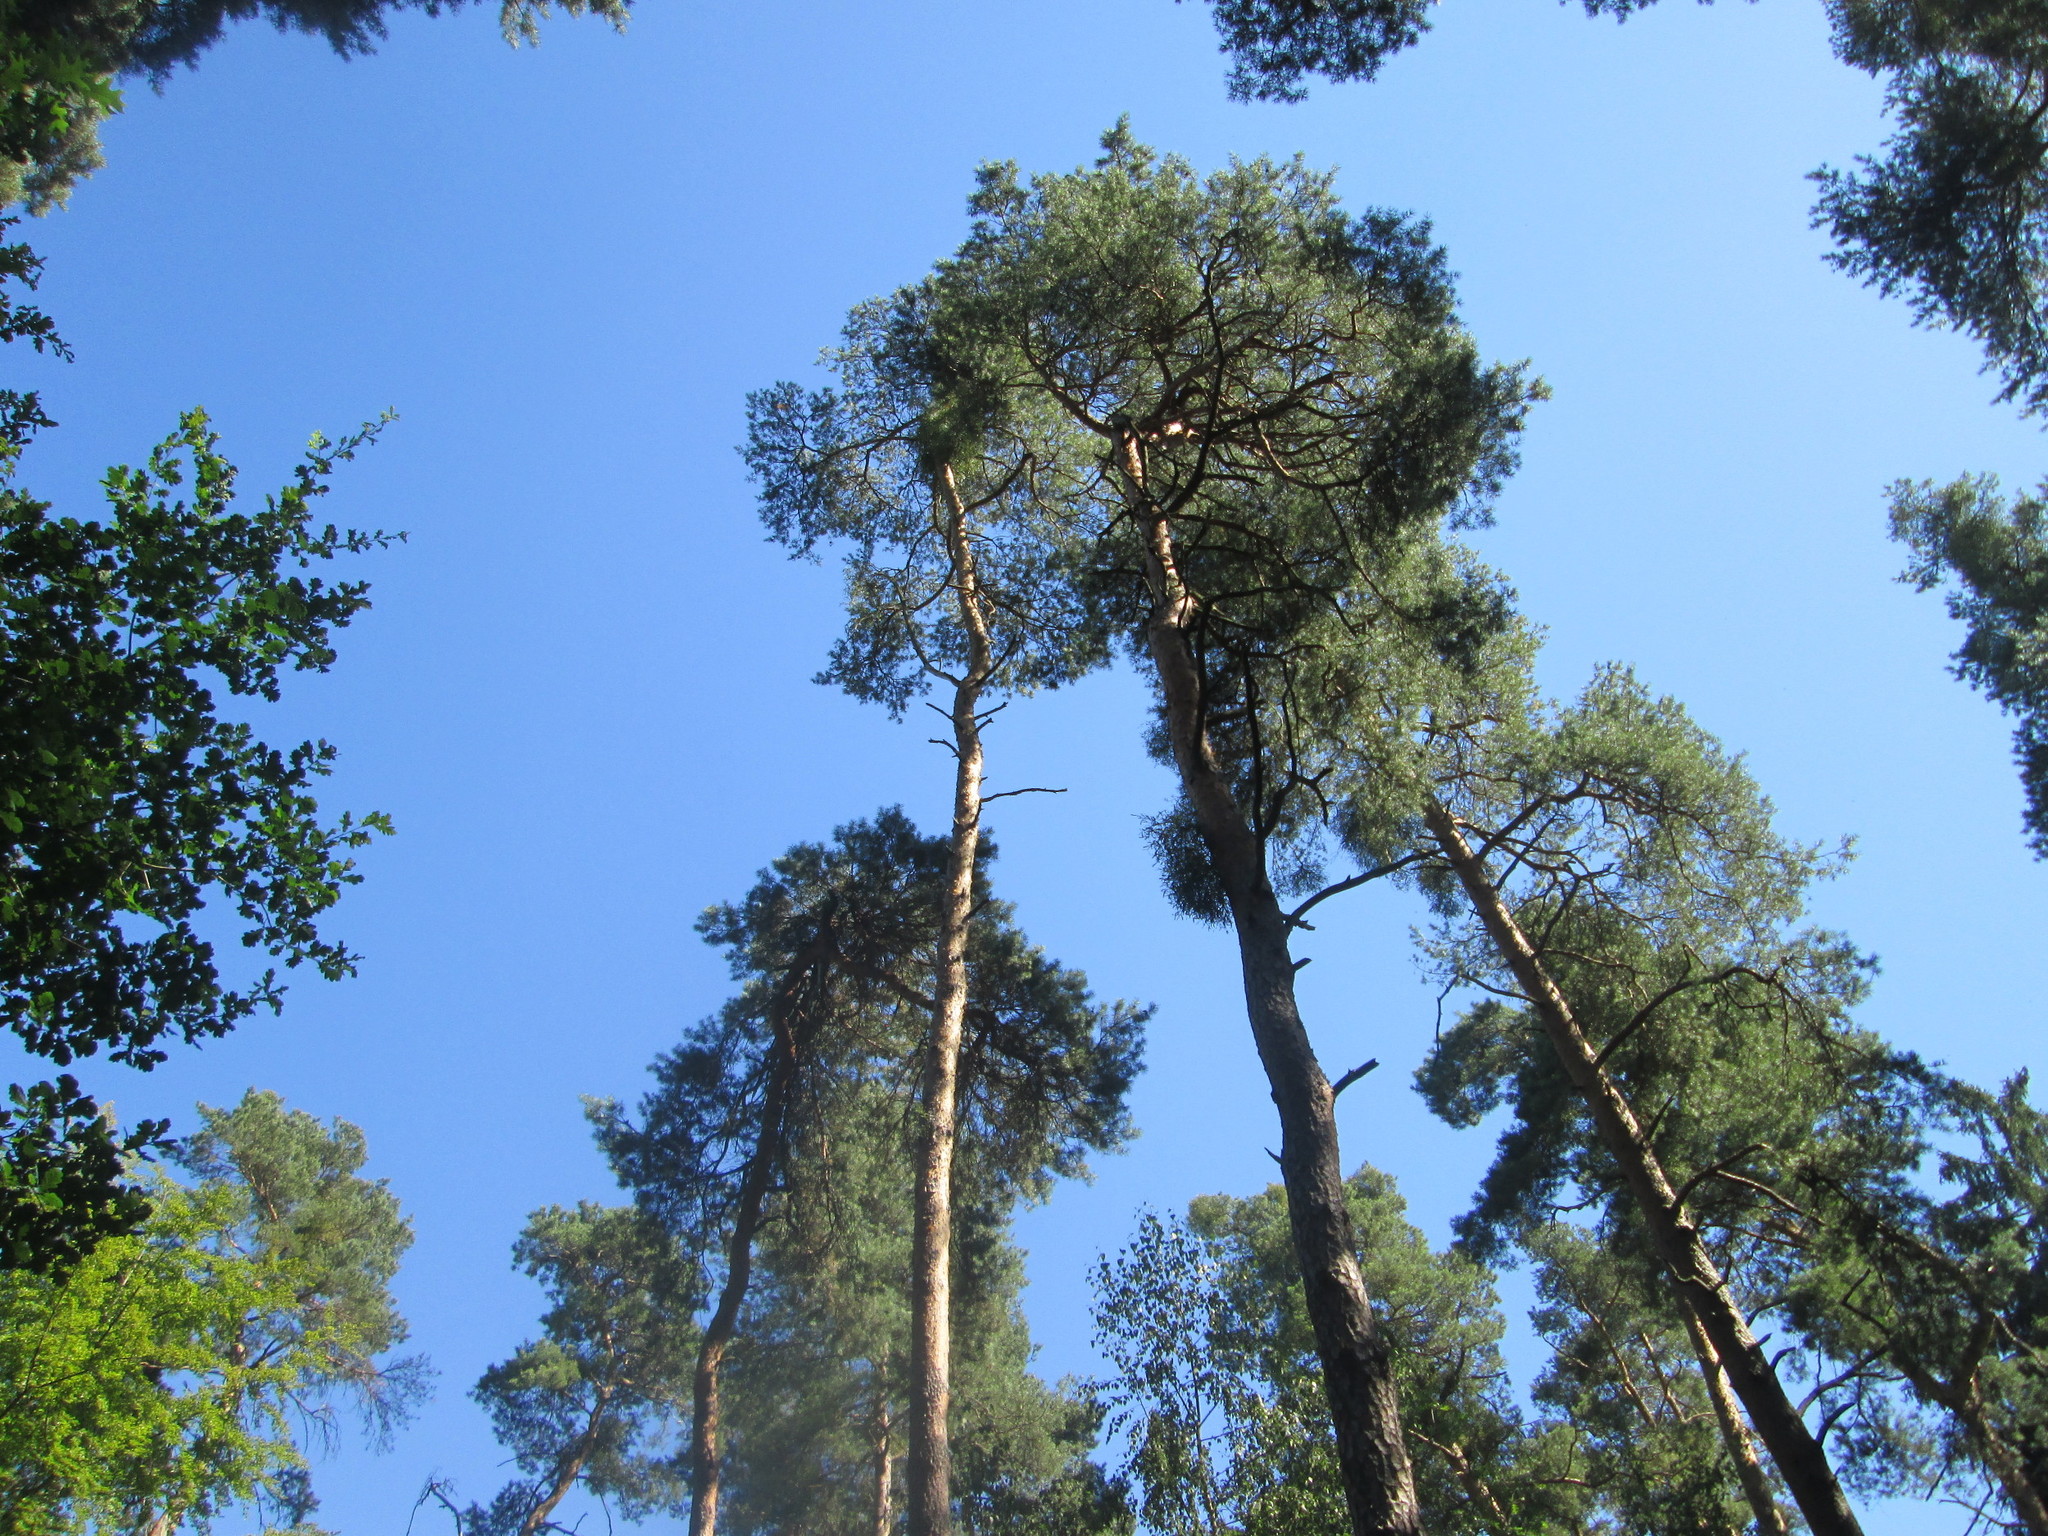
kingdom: Plantae
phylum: Tracheophyta
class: Pinopsida
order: Pinales
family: Pinaceae
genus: Pinus
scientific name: Pinus sylvestris
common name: Scots pine
